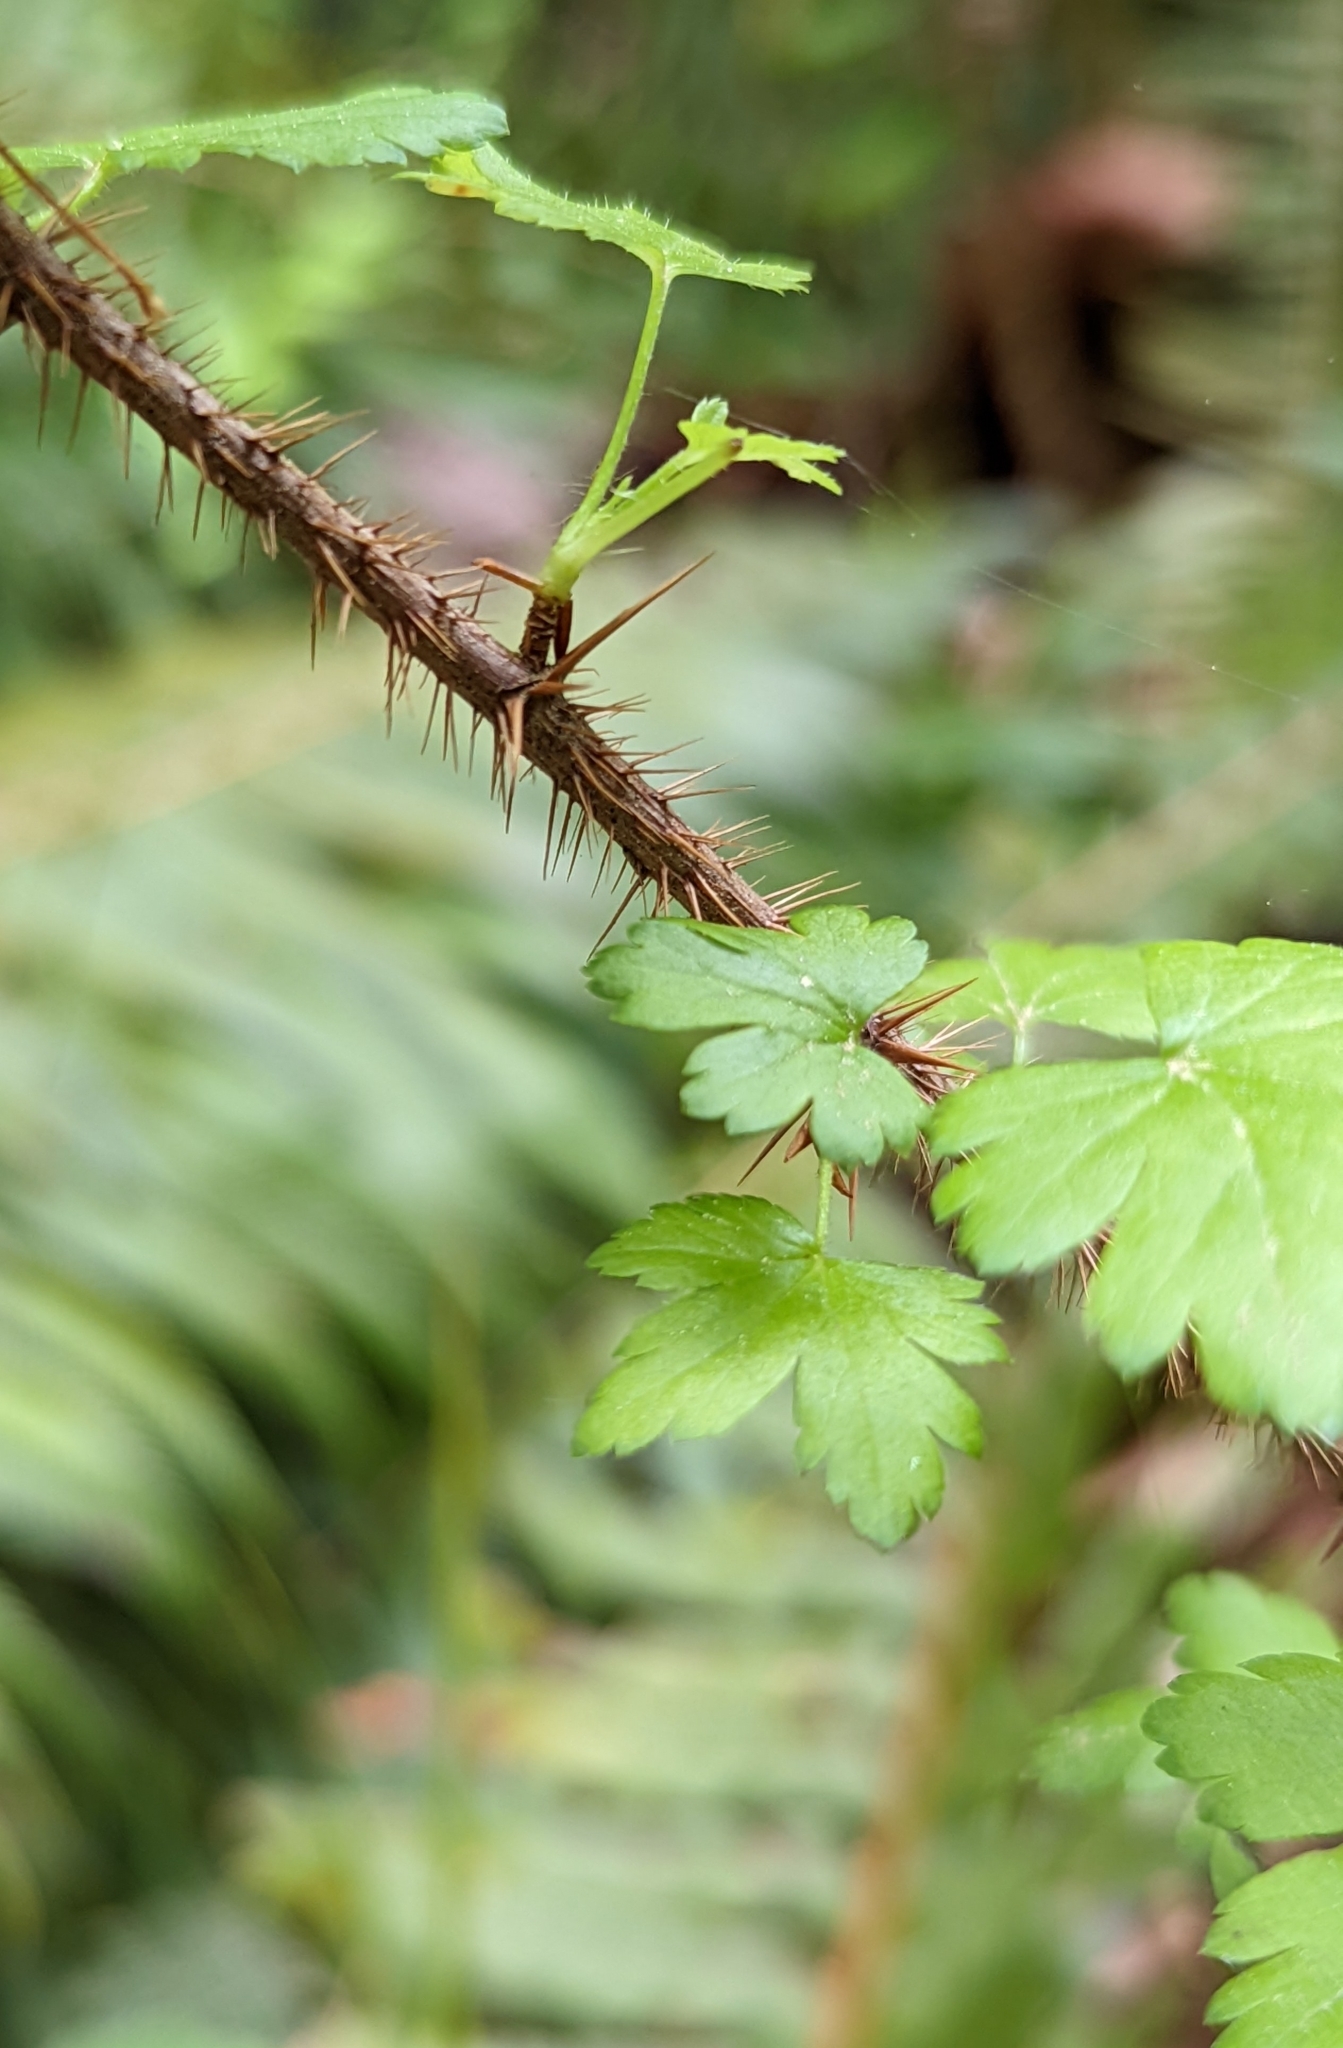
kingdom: Plantae
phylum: Tracheophyta
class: Magnoliopsida
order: Saxifragales
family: Grossulariaceae
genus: Ribes
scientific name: Ribes lacustre
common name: Black gooseberry
